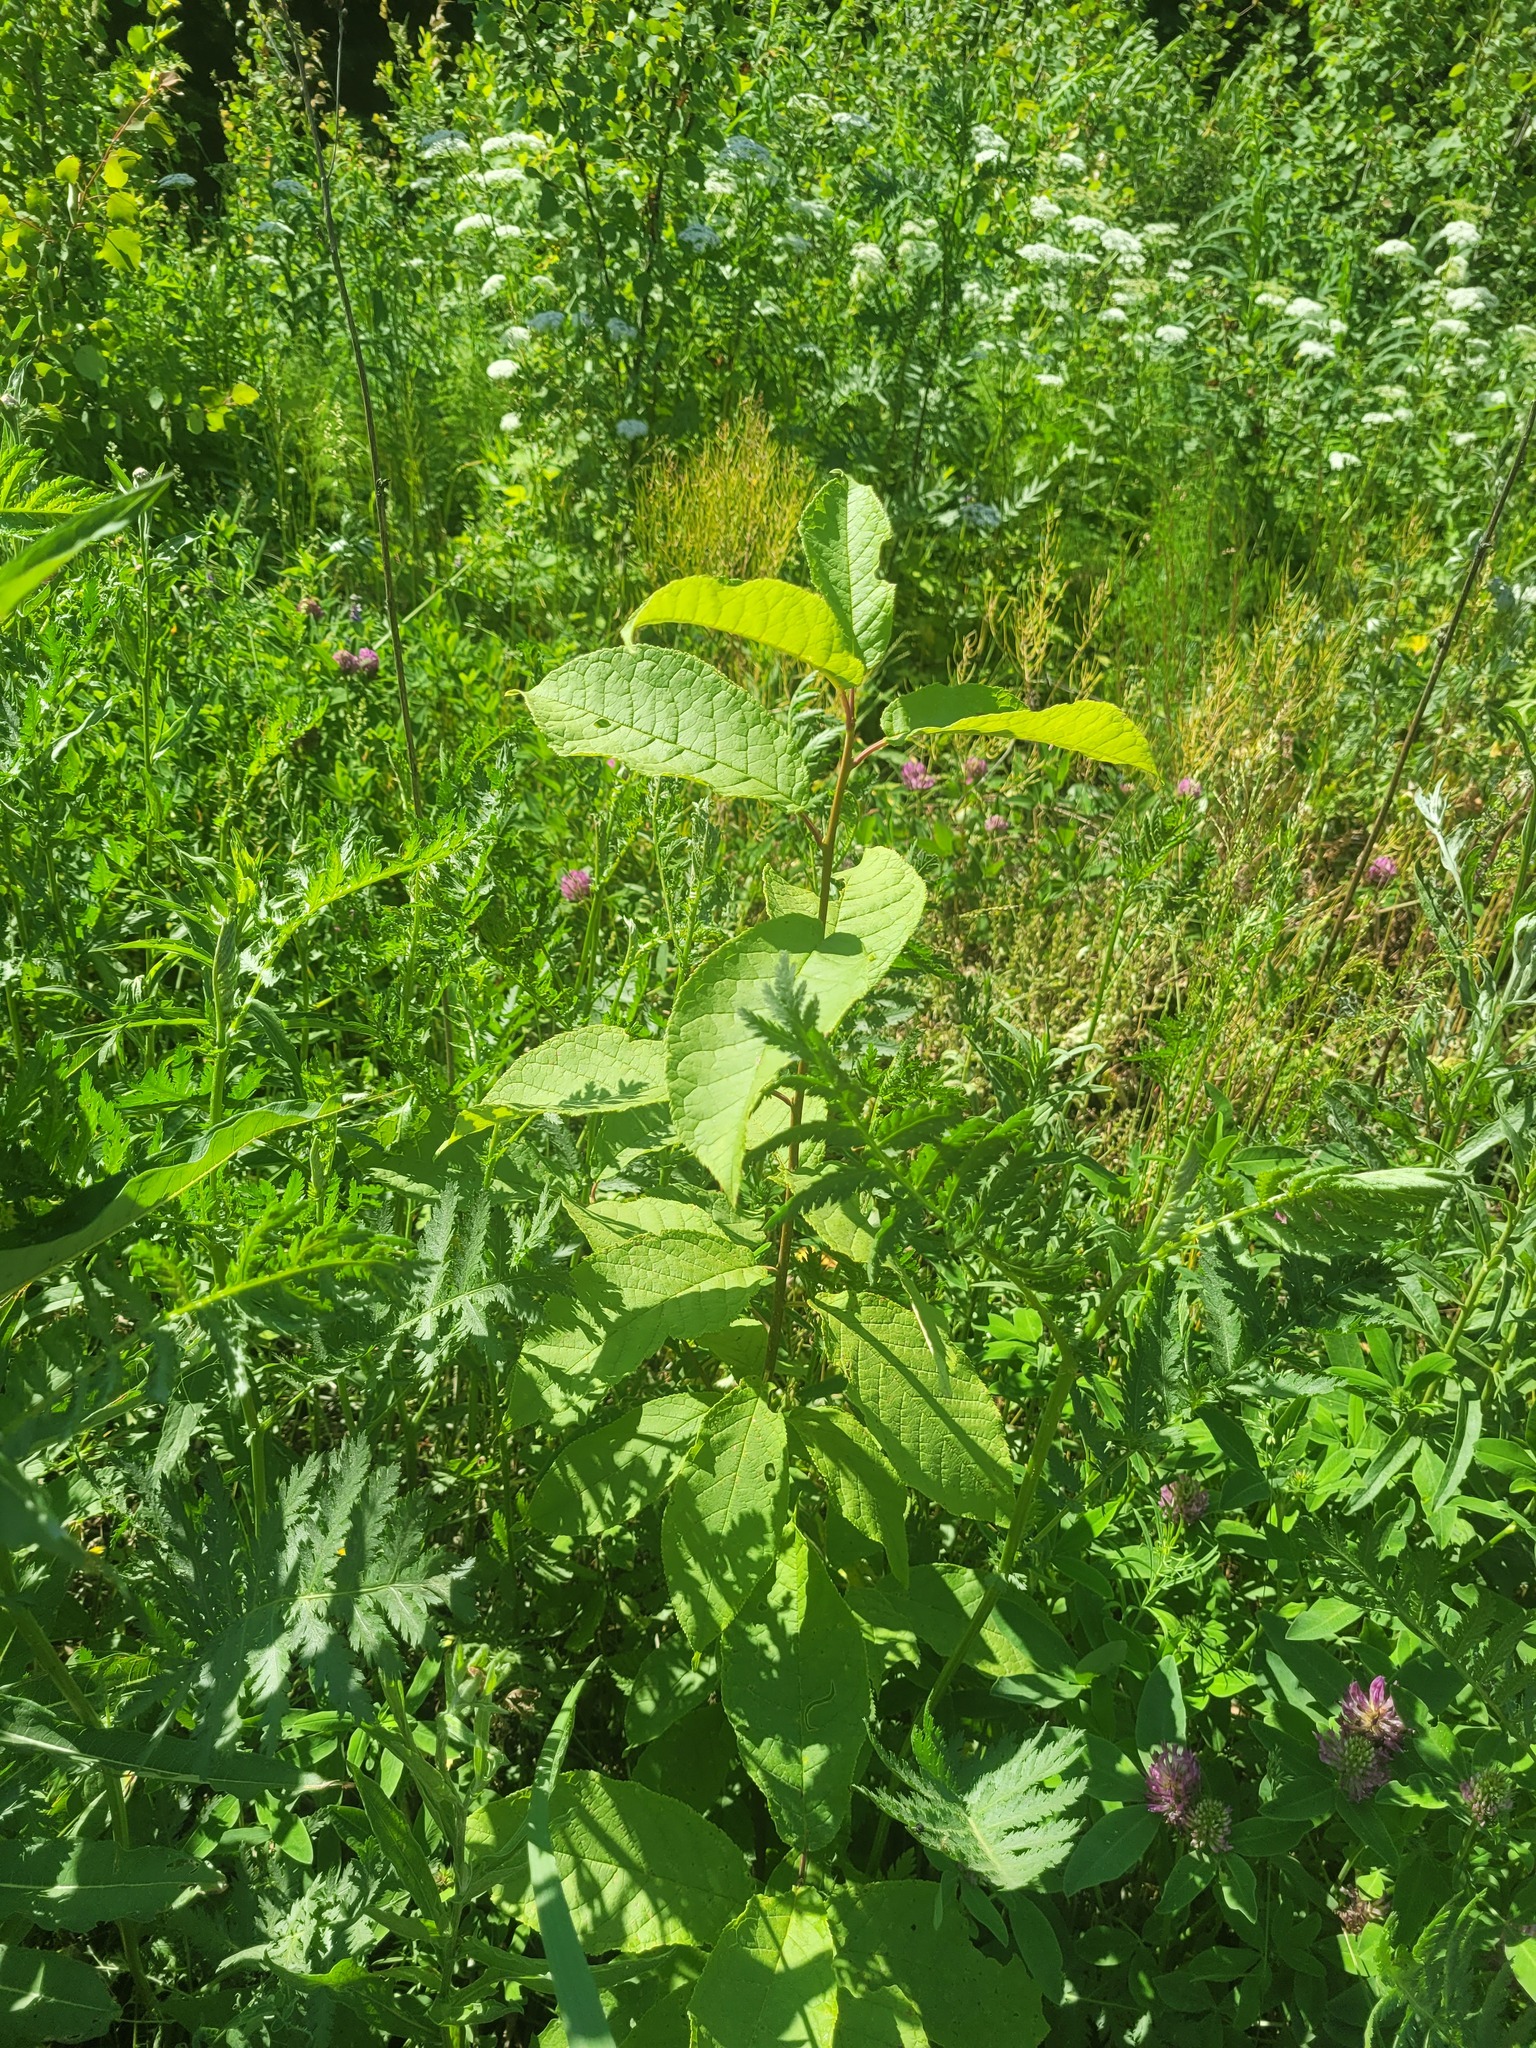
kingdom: Plantae
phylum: Tracheophyta
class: Magnoliopsida
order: Rosales
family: Rosaceae
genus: Prunus
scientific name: Prunus padus
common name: Bird cherry
